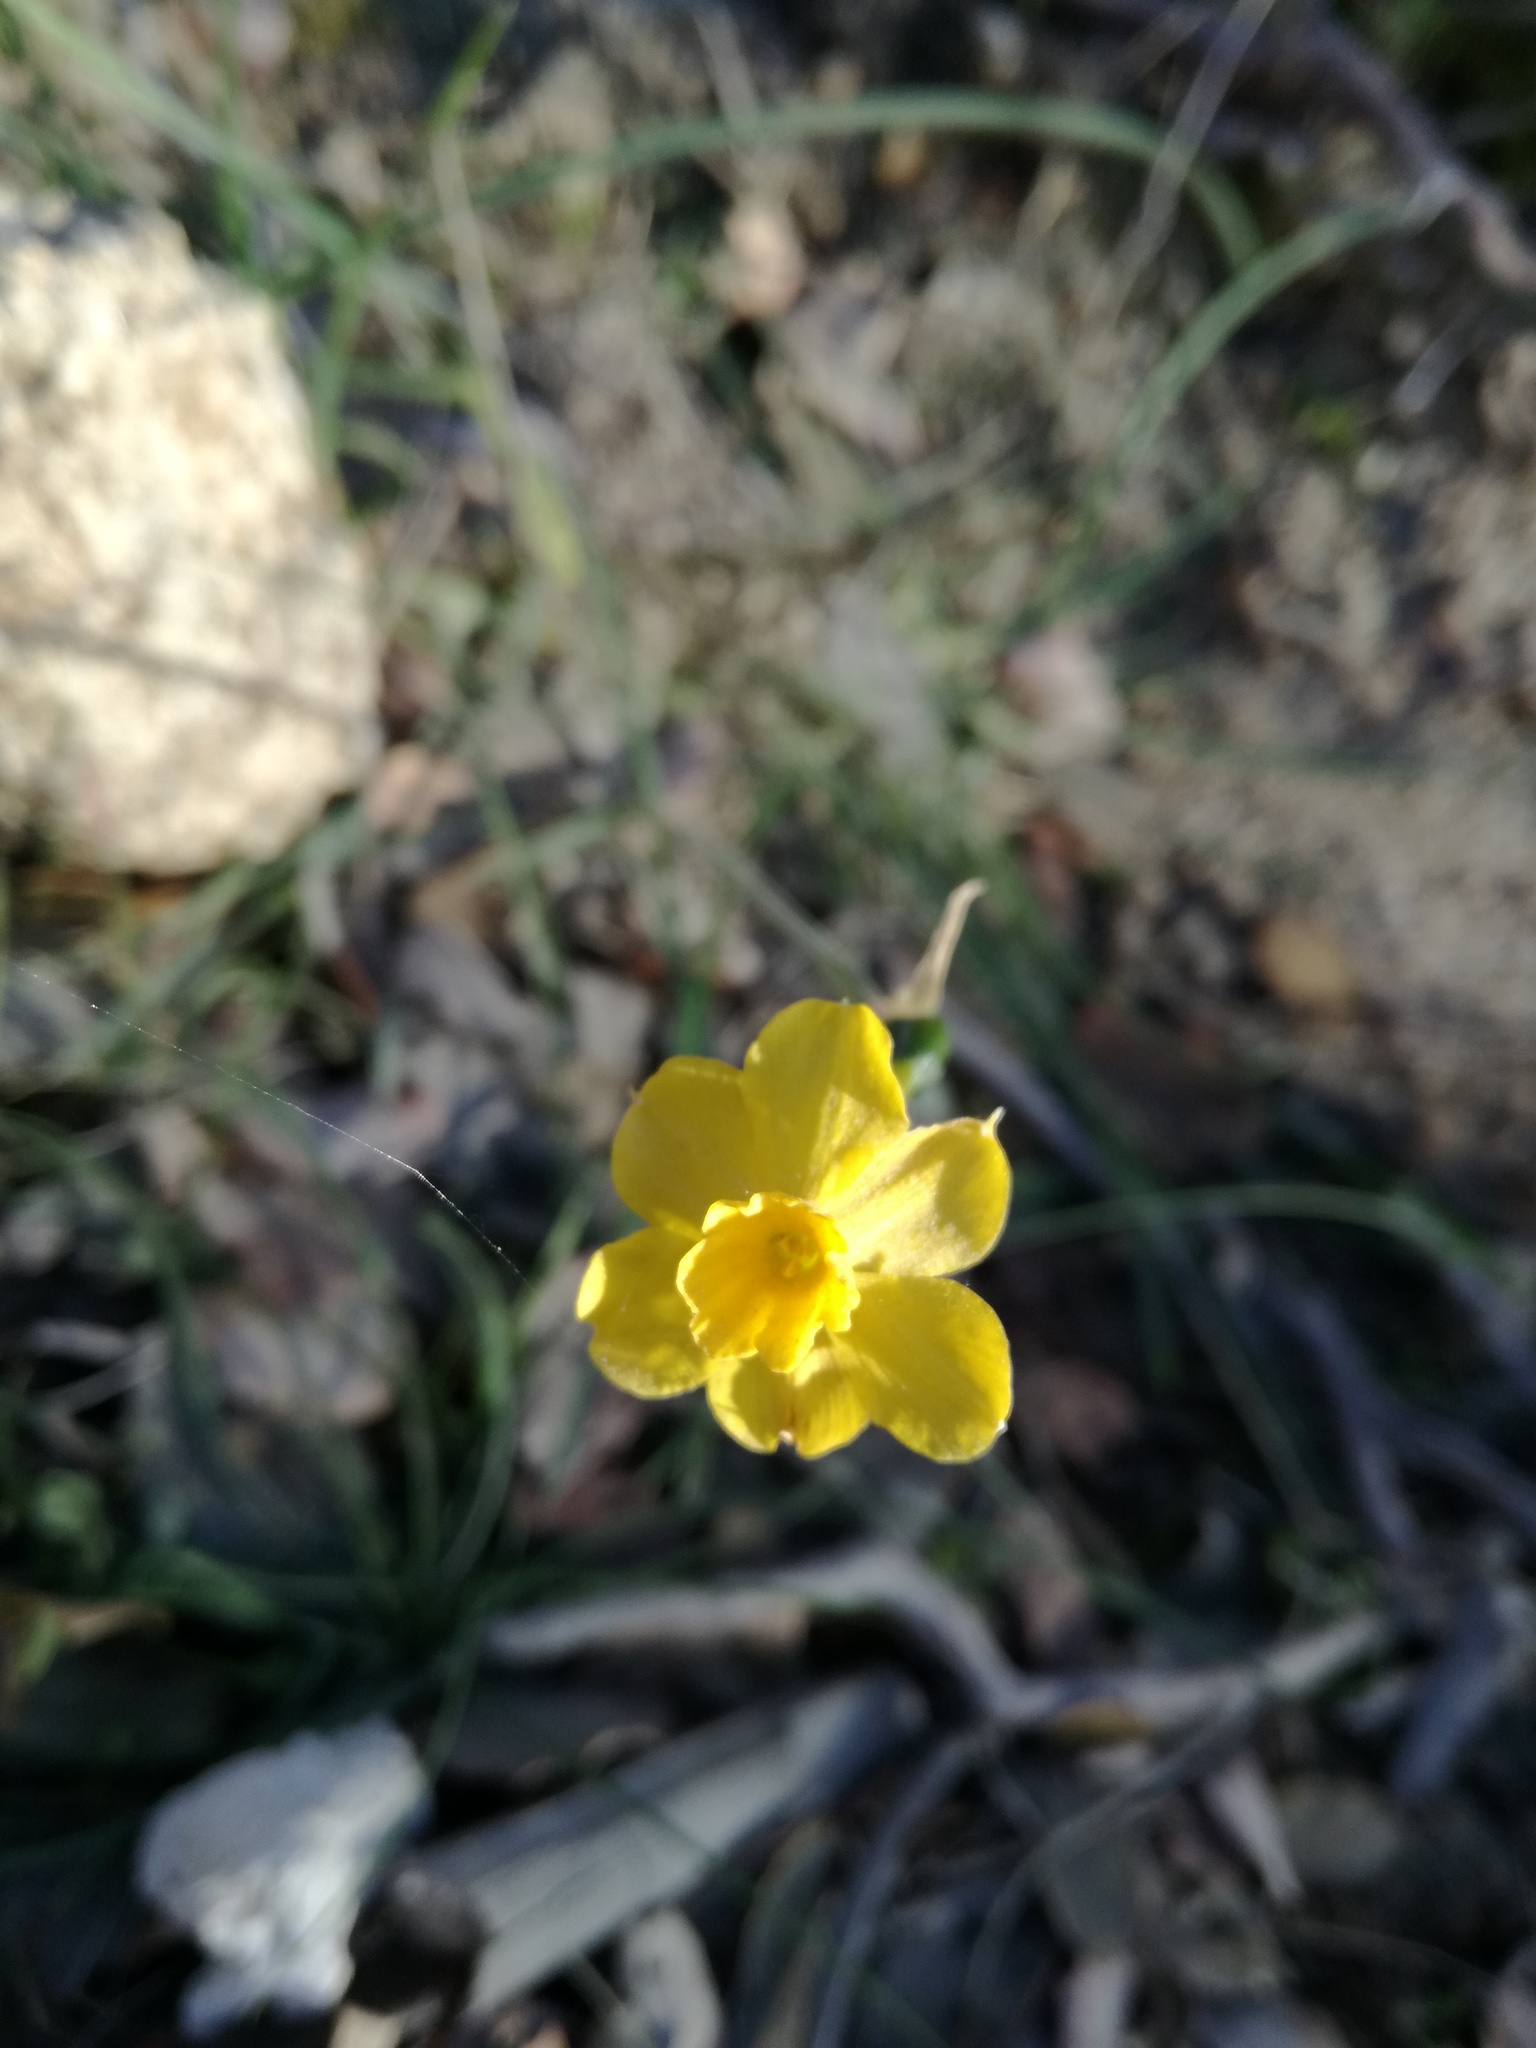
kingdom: Plantae
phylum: Tracheophyta
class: Liliopsida
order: Asparagales
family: Amaryllidaceae
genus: Narcissus
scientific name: Narcissus assoanus
